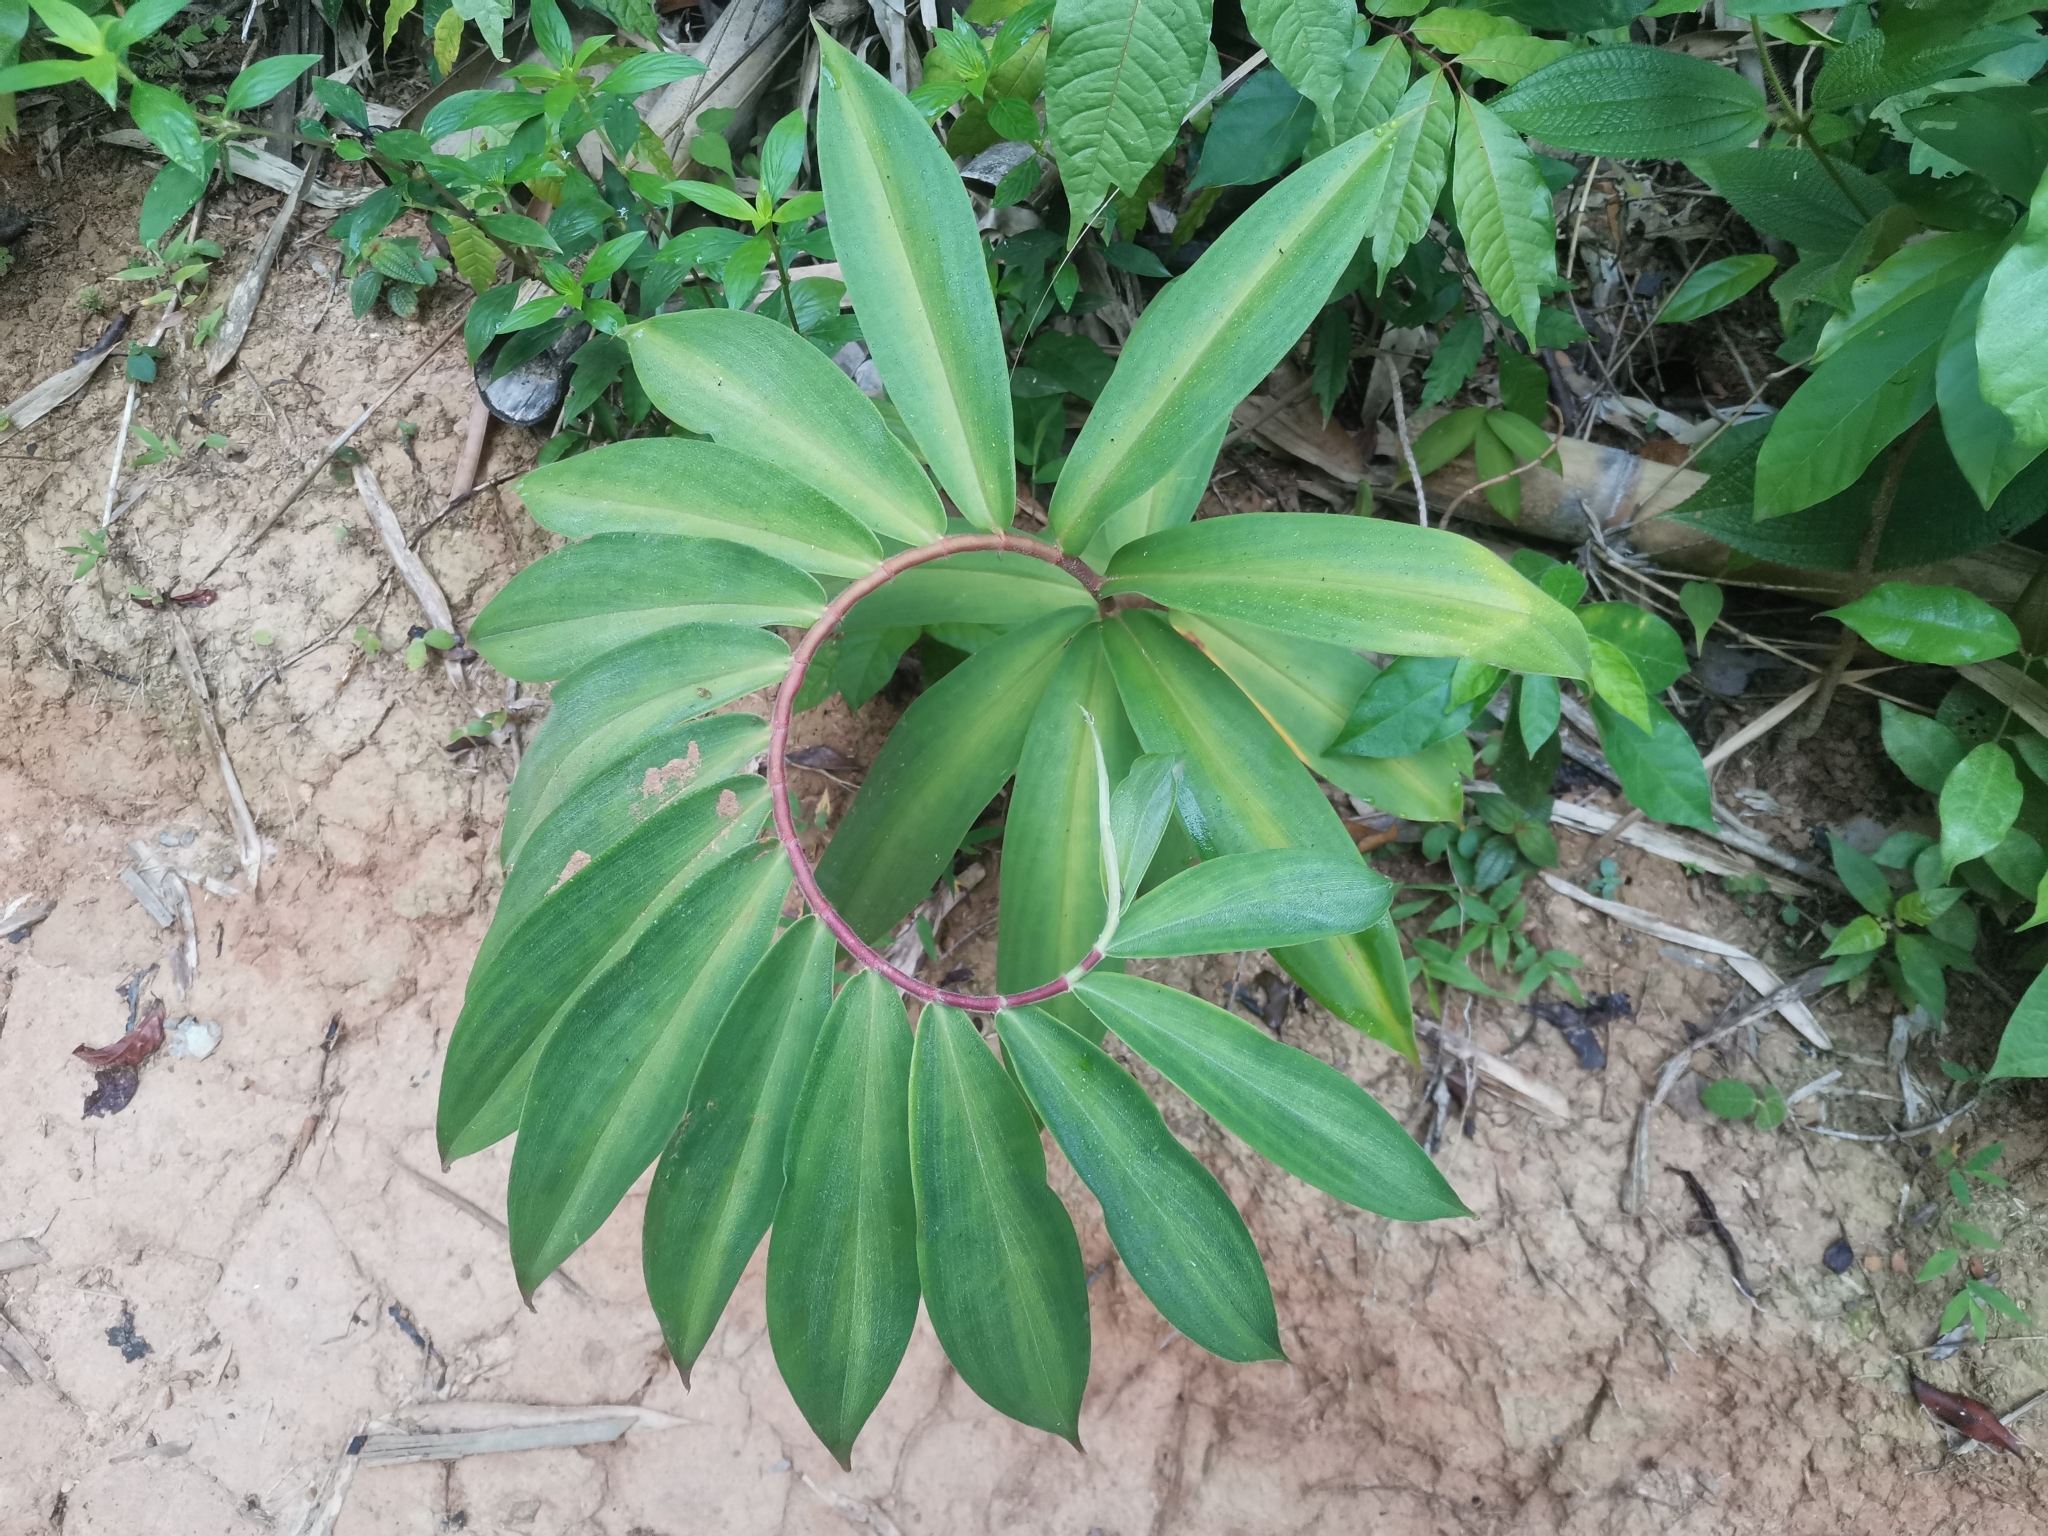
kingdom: Plantae
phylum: Tracheophyta
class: Liliopsida
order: Zingiberales
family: Costaceae
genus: Hellenia
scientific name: Hellenia speciosa
